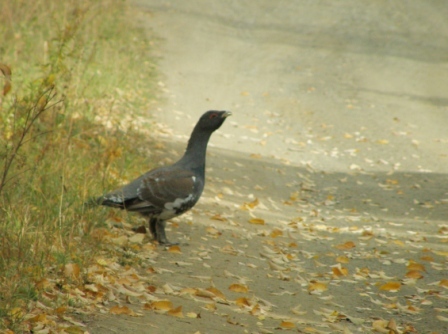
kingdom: Animalia
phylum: Chordata
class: Aves
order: Galliformes
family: Phasianidae
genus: Tetrao
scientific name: Tetrao urogallus
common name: Western capercaillie
